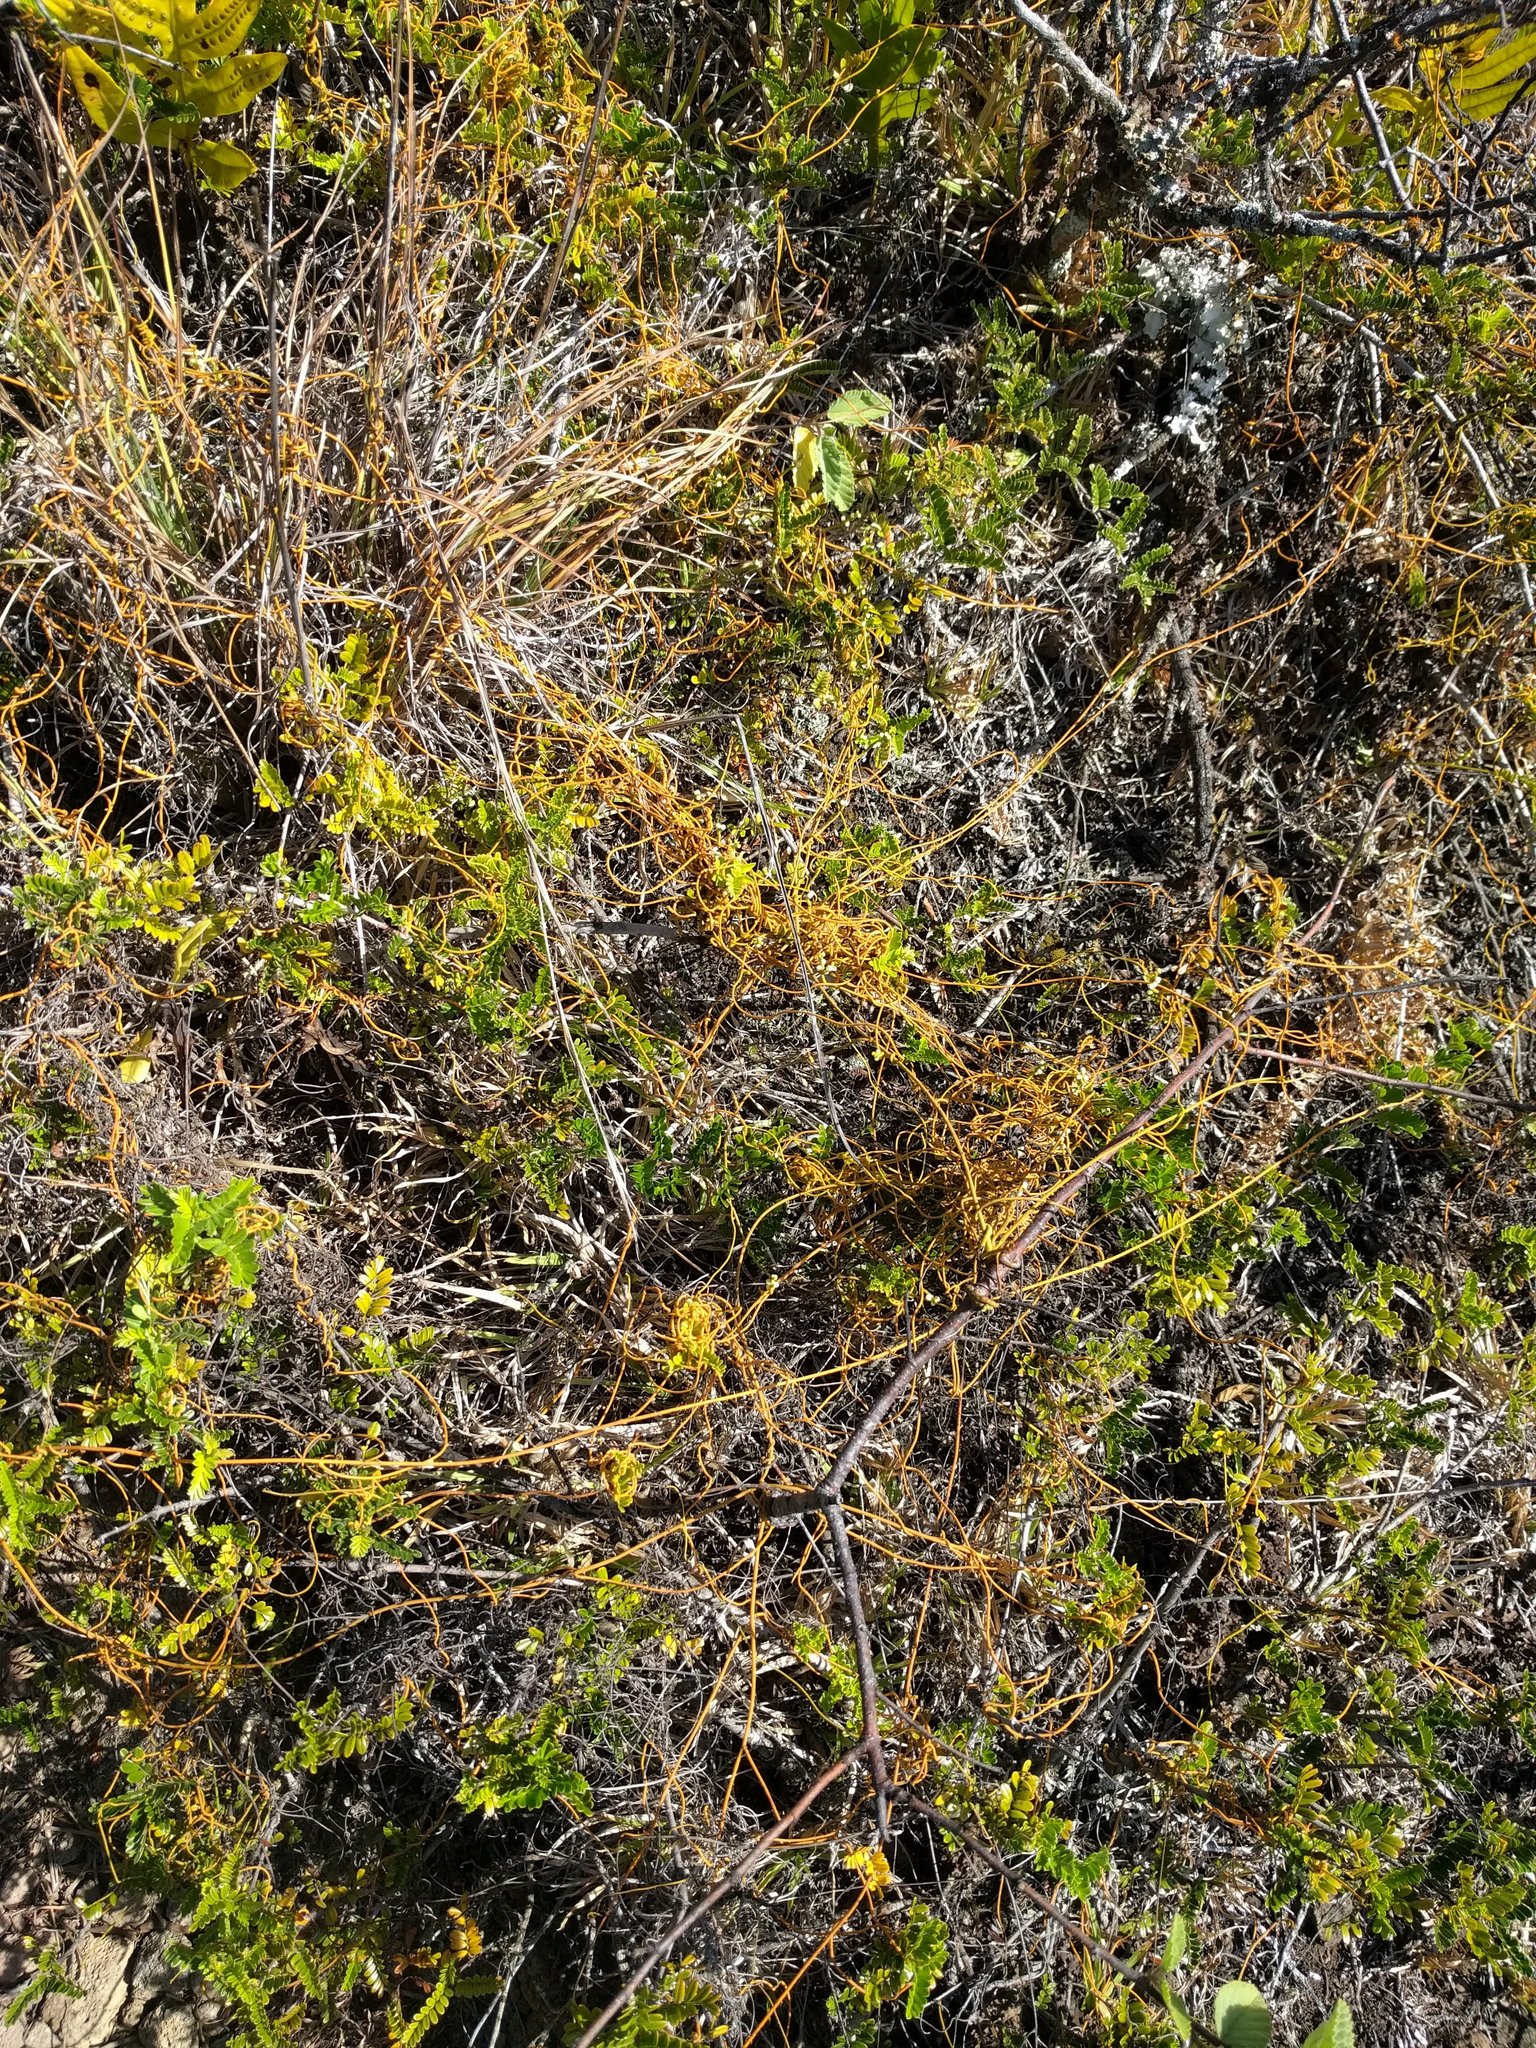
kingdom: Plantae
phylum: Tracheophyta
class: Magnoliopsida
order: Laurales
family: Lauraceae
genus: Cassytha
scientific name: Cassytha filiformis
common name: Dodder-laurel
